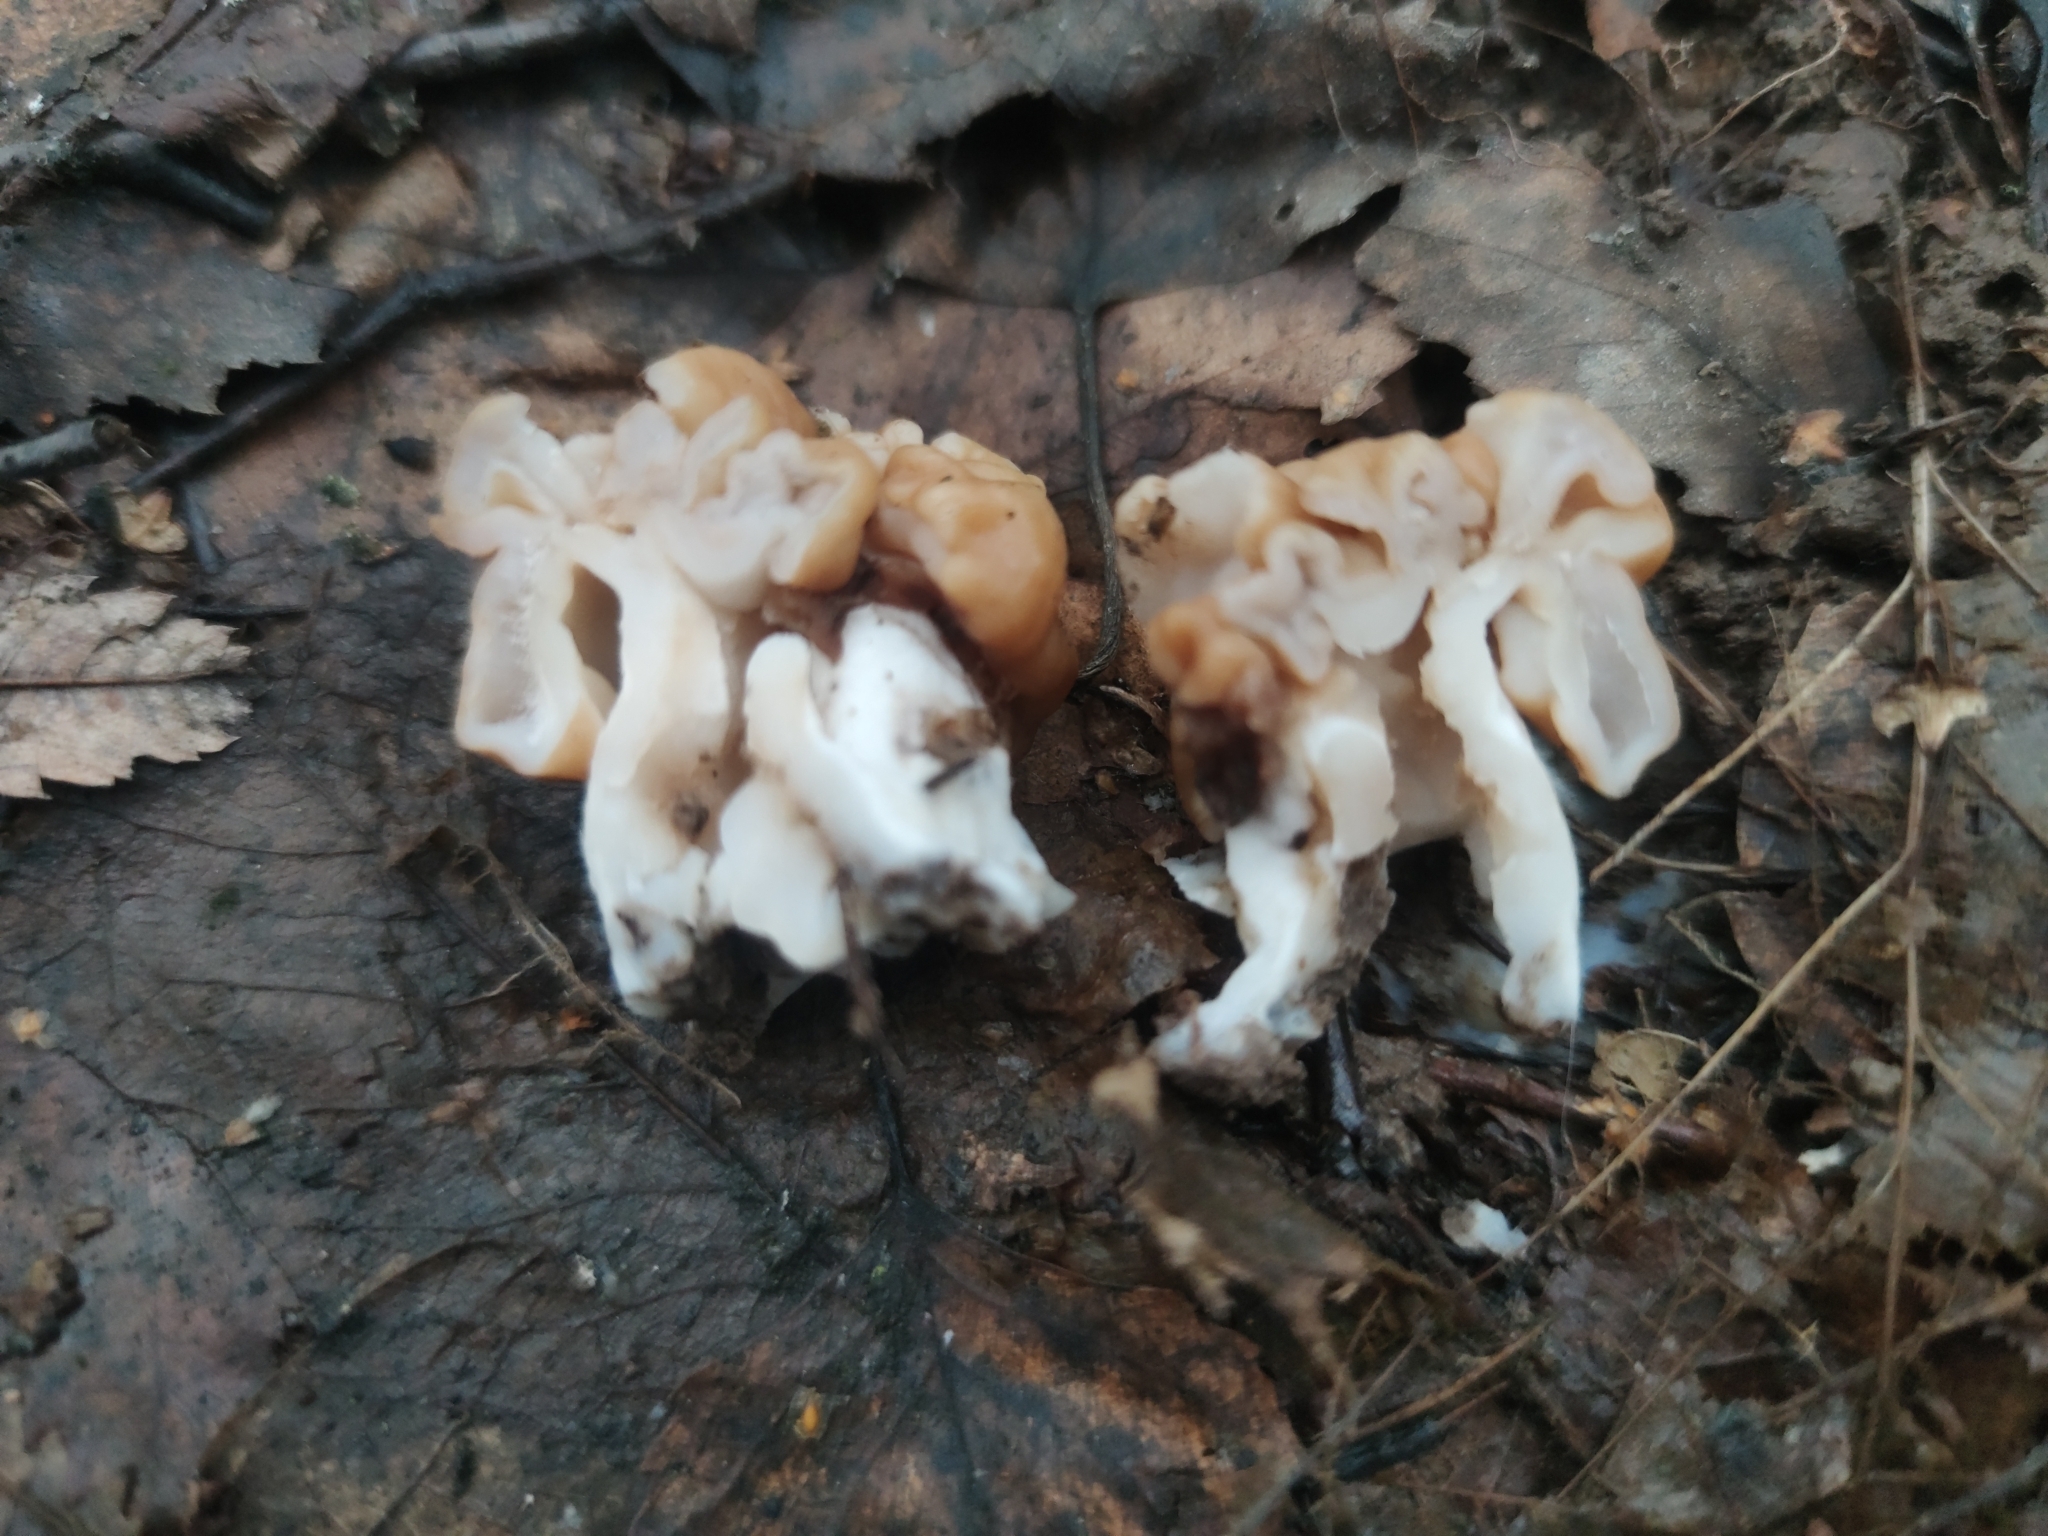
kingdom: Fungi
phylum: Ascomycota
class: Pezizomycetes
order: Pezizales
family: Discinaceae
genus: Gyromitra
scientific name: Gyromitra gigas
